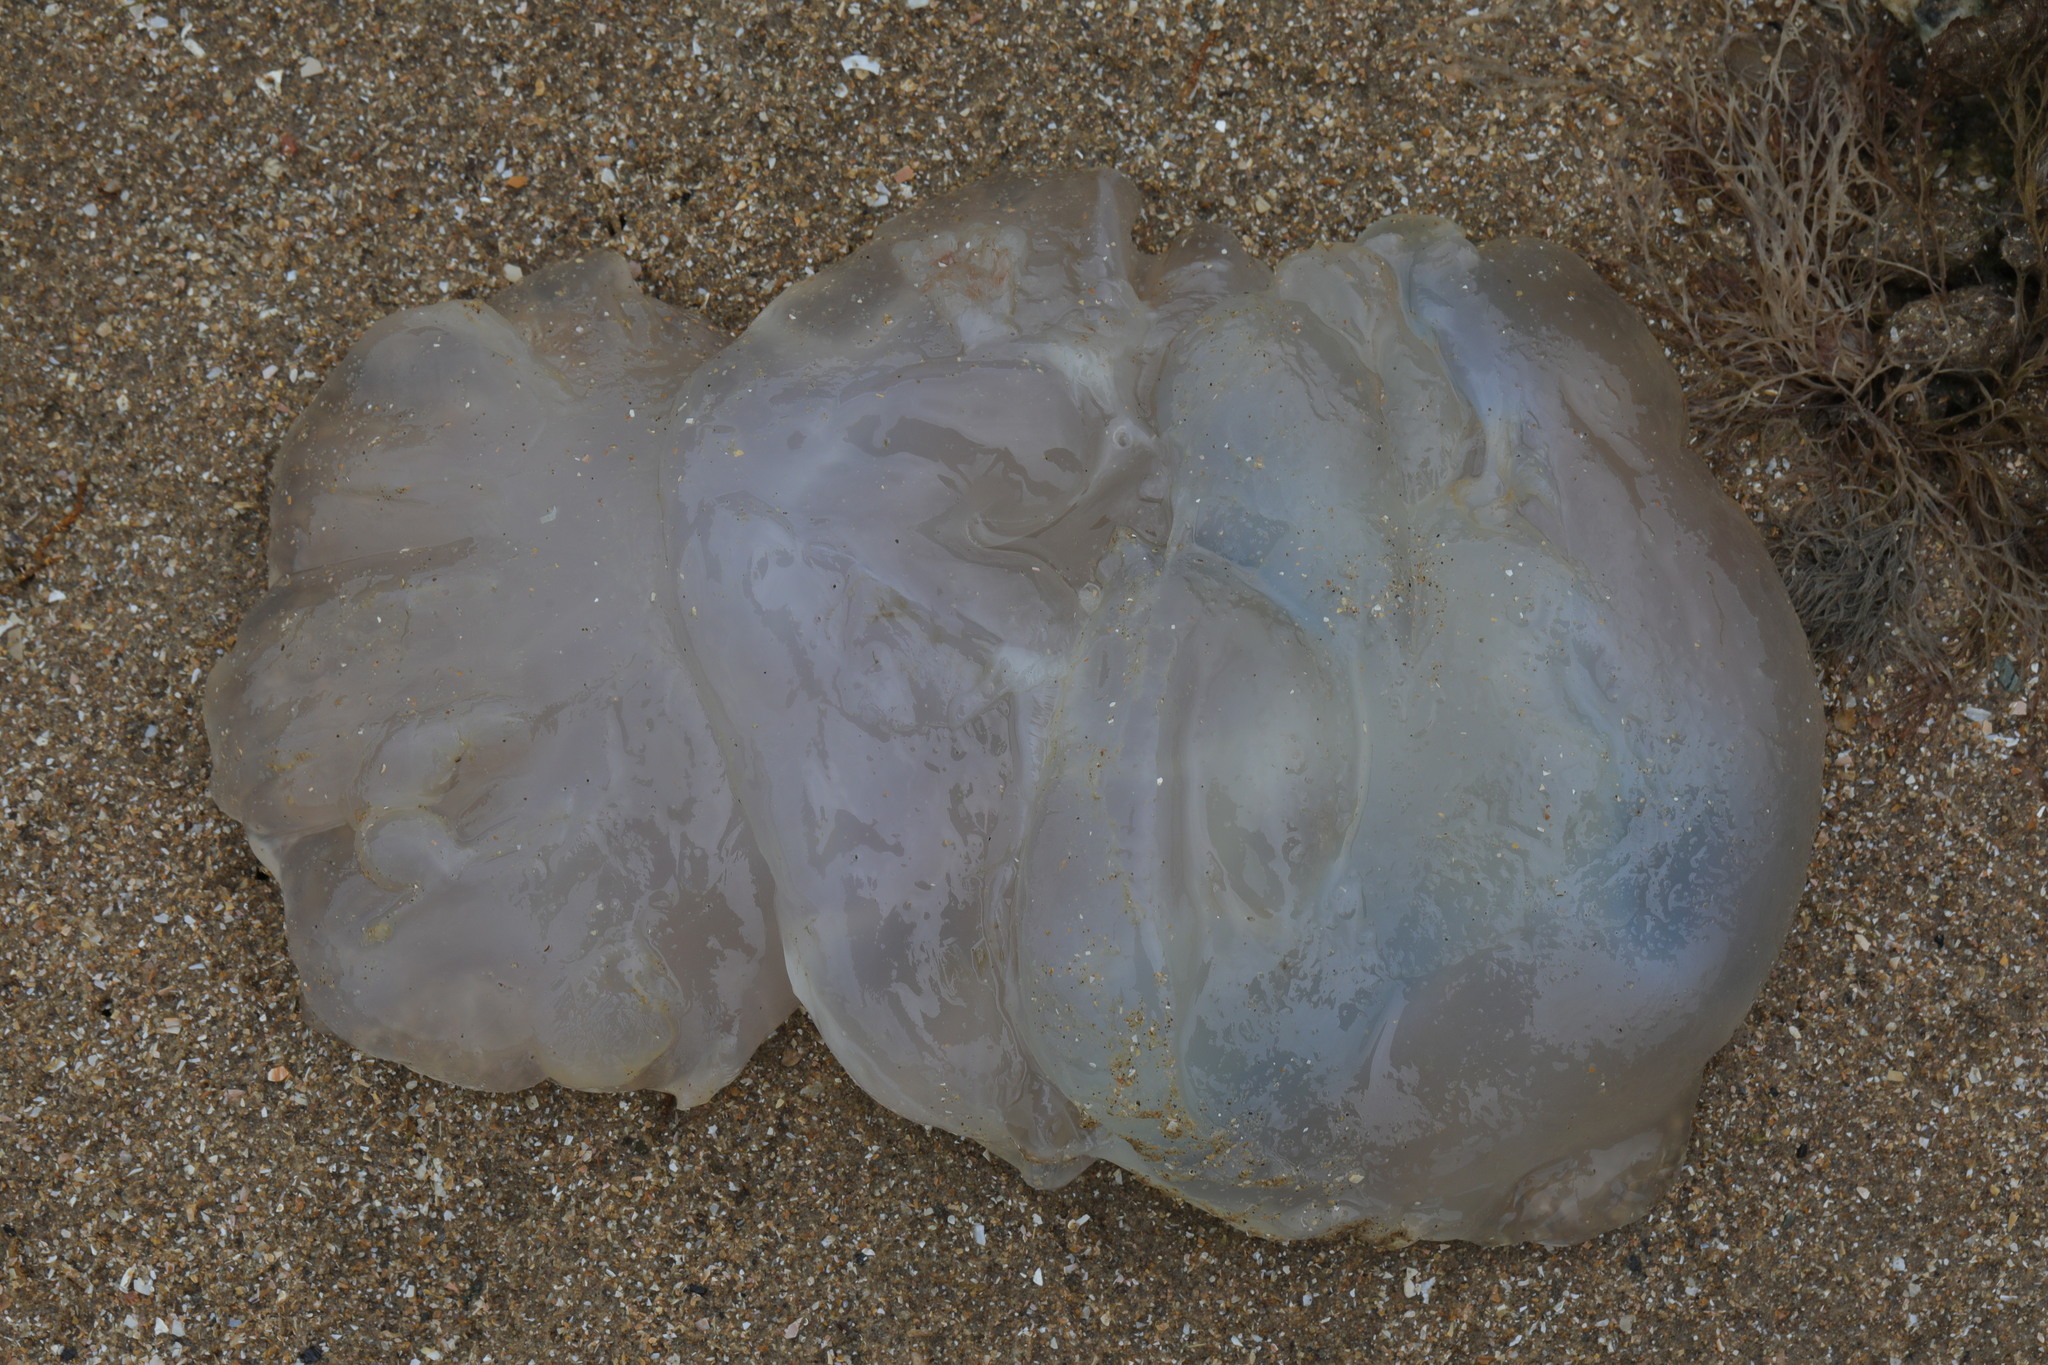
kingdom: Animalia
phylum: Cnidaria
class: Scyphozoa
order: Rhizostomeae
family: Rhizostomatidae
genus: Rhizostoma
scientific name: Rhizostoma octopus
